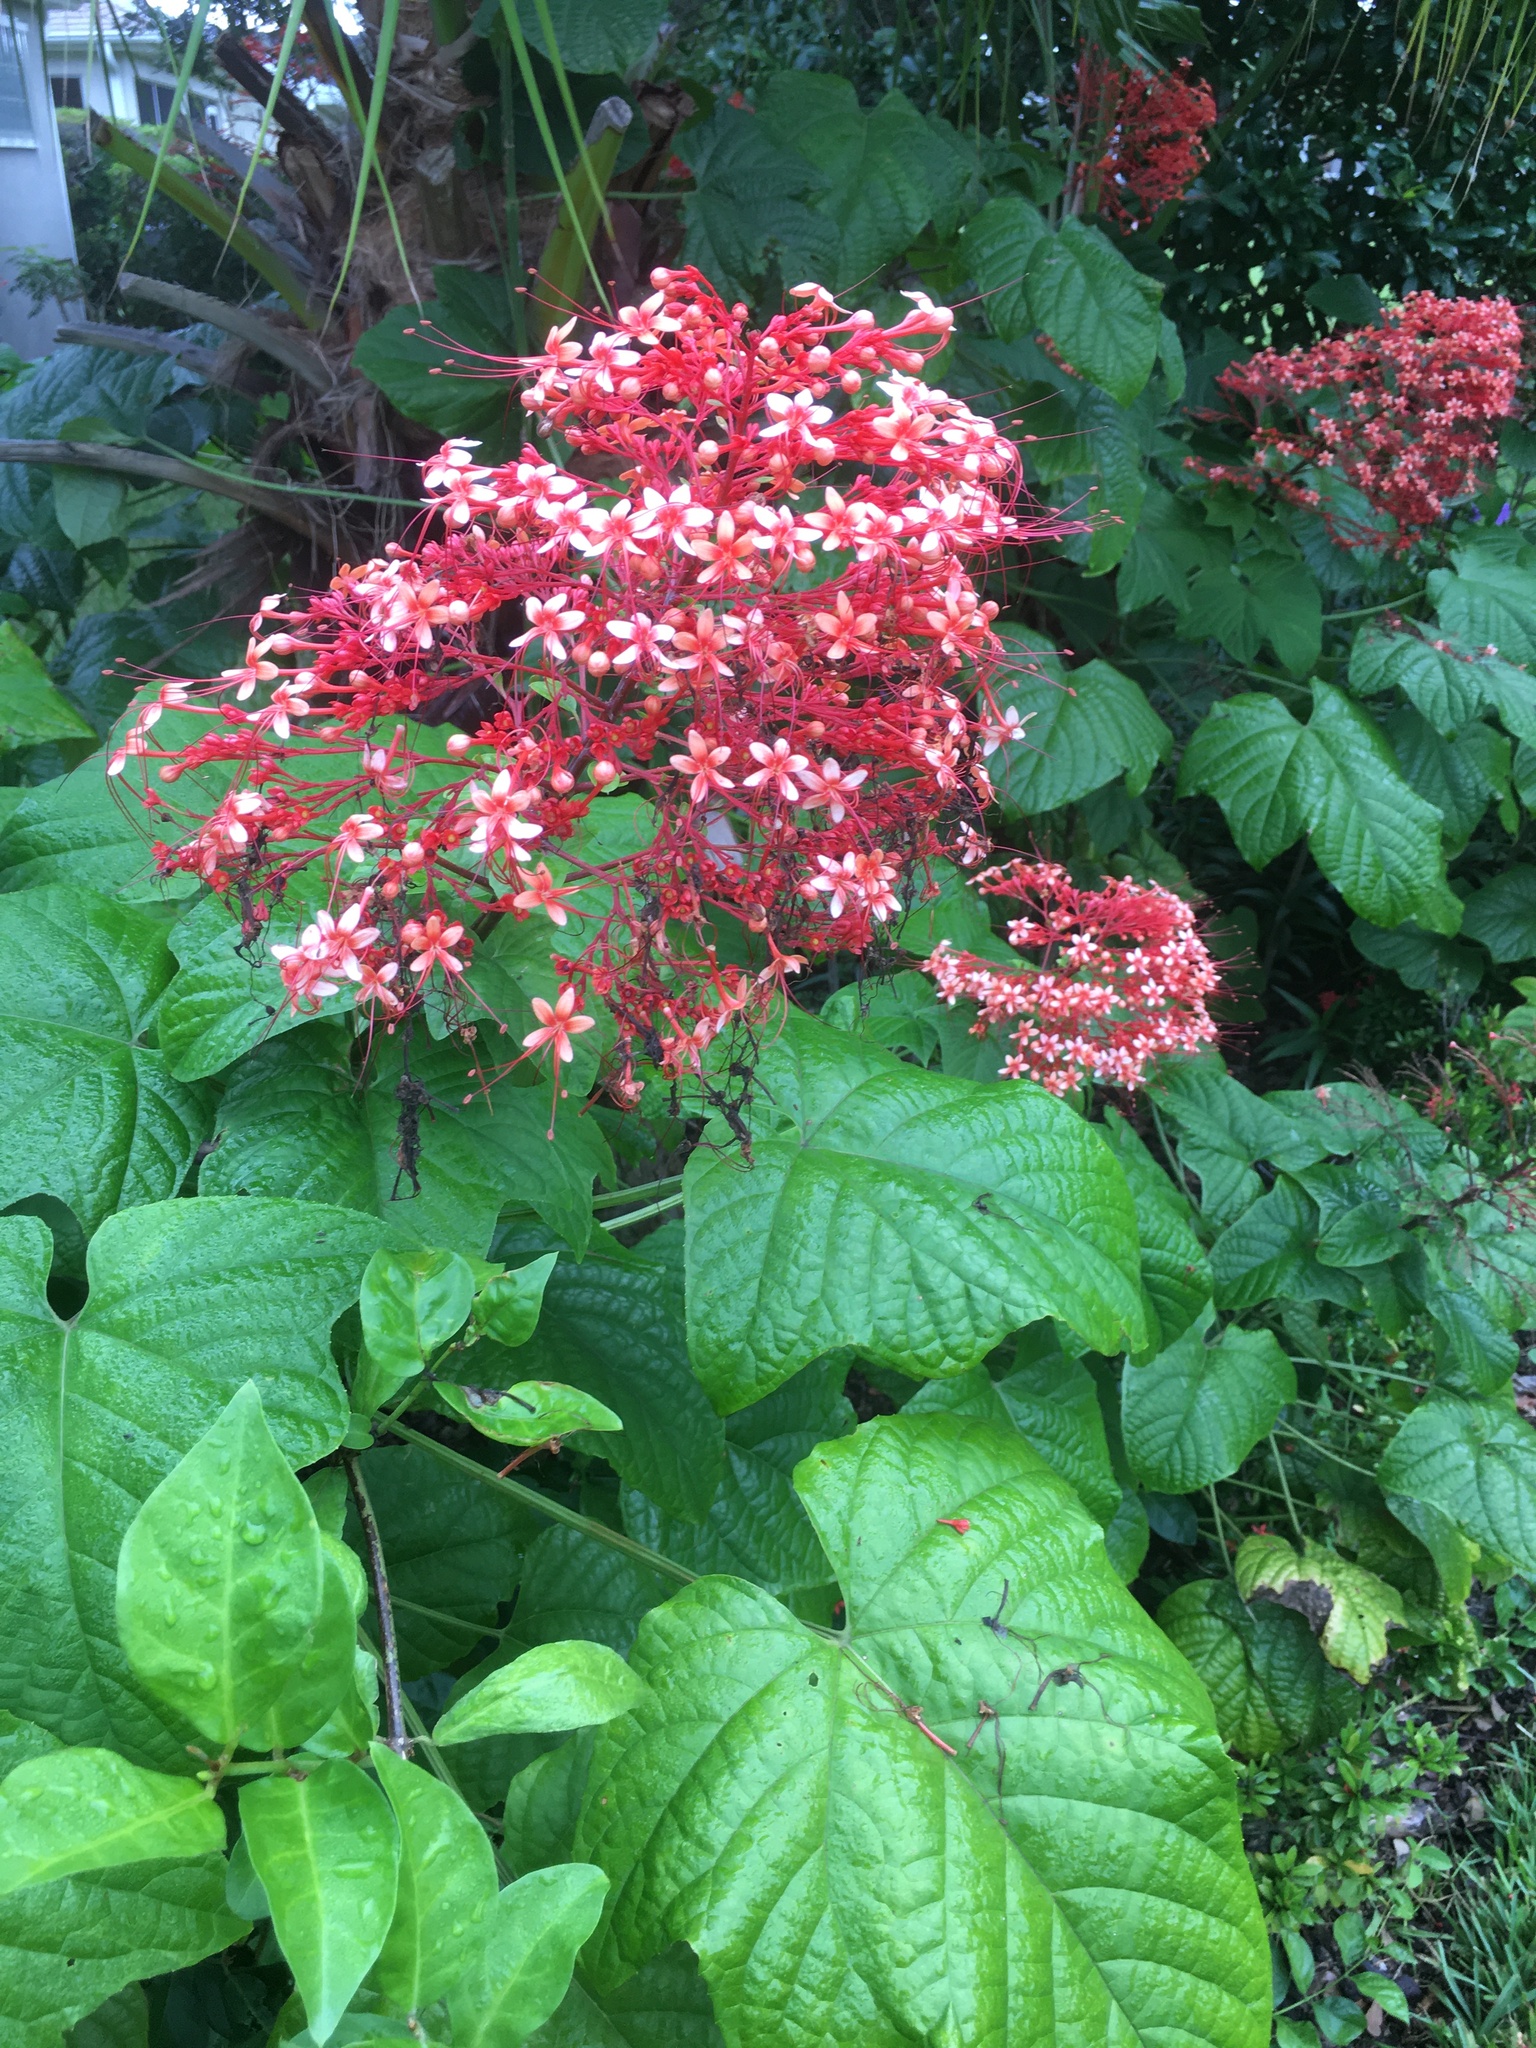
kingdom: Plantae
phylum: Tracheophyta
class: Magnoliopsida
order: Lamiales
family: Lamiaceae
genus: Clerodendrum
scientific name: Clerodendrum paniculatum
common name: Pagoda-flower
